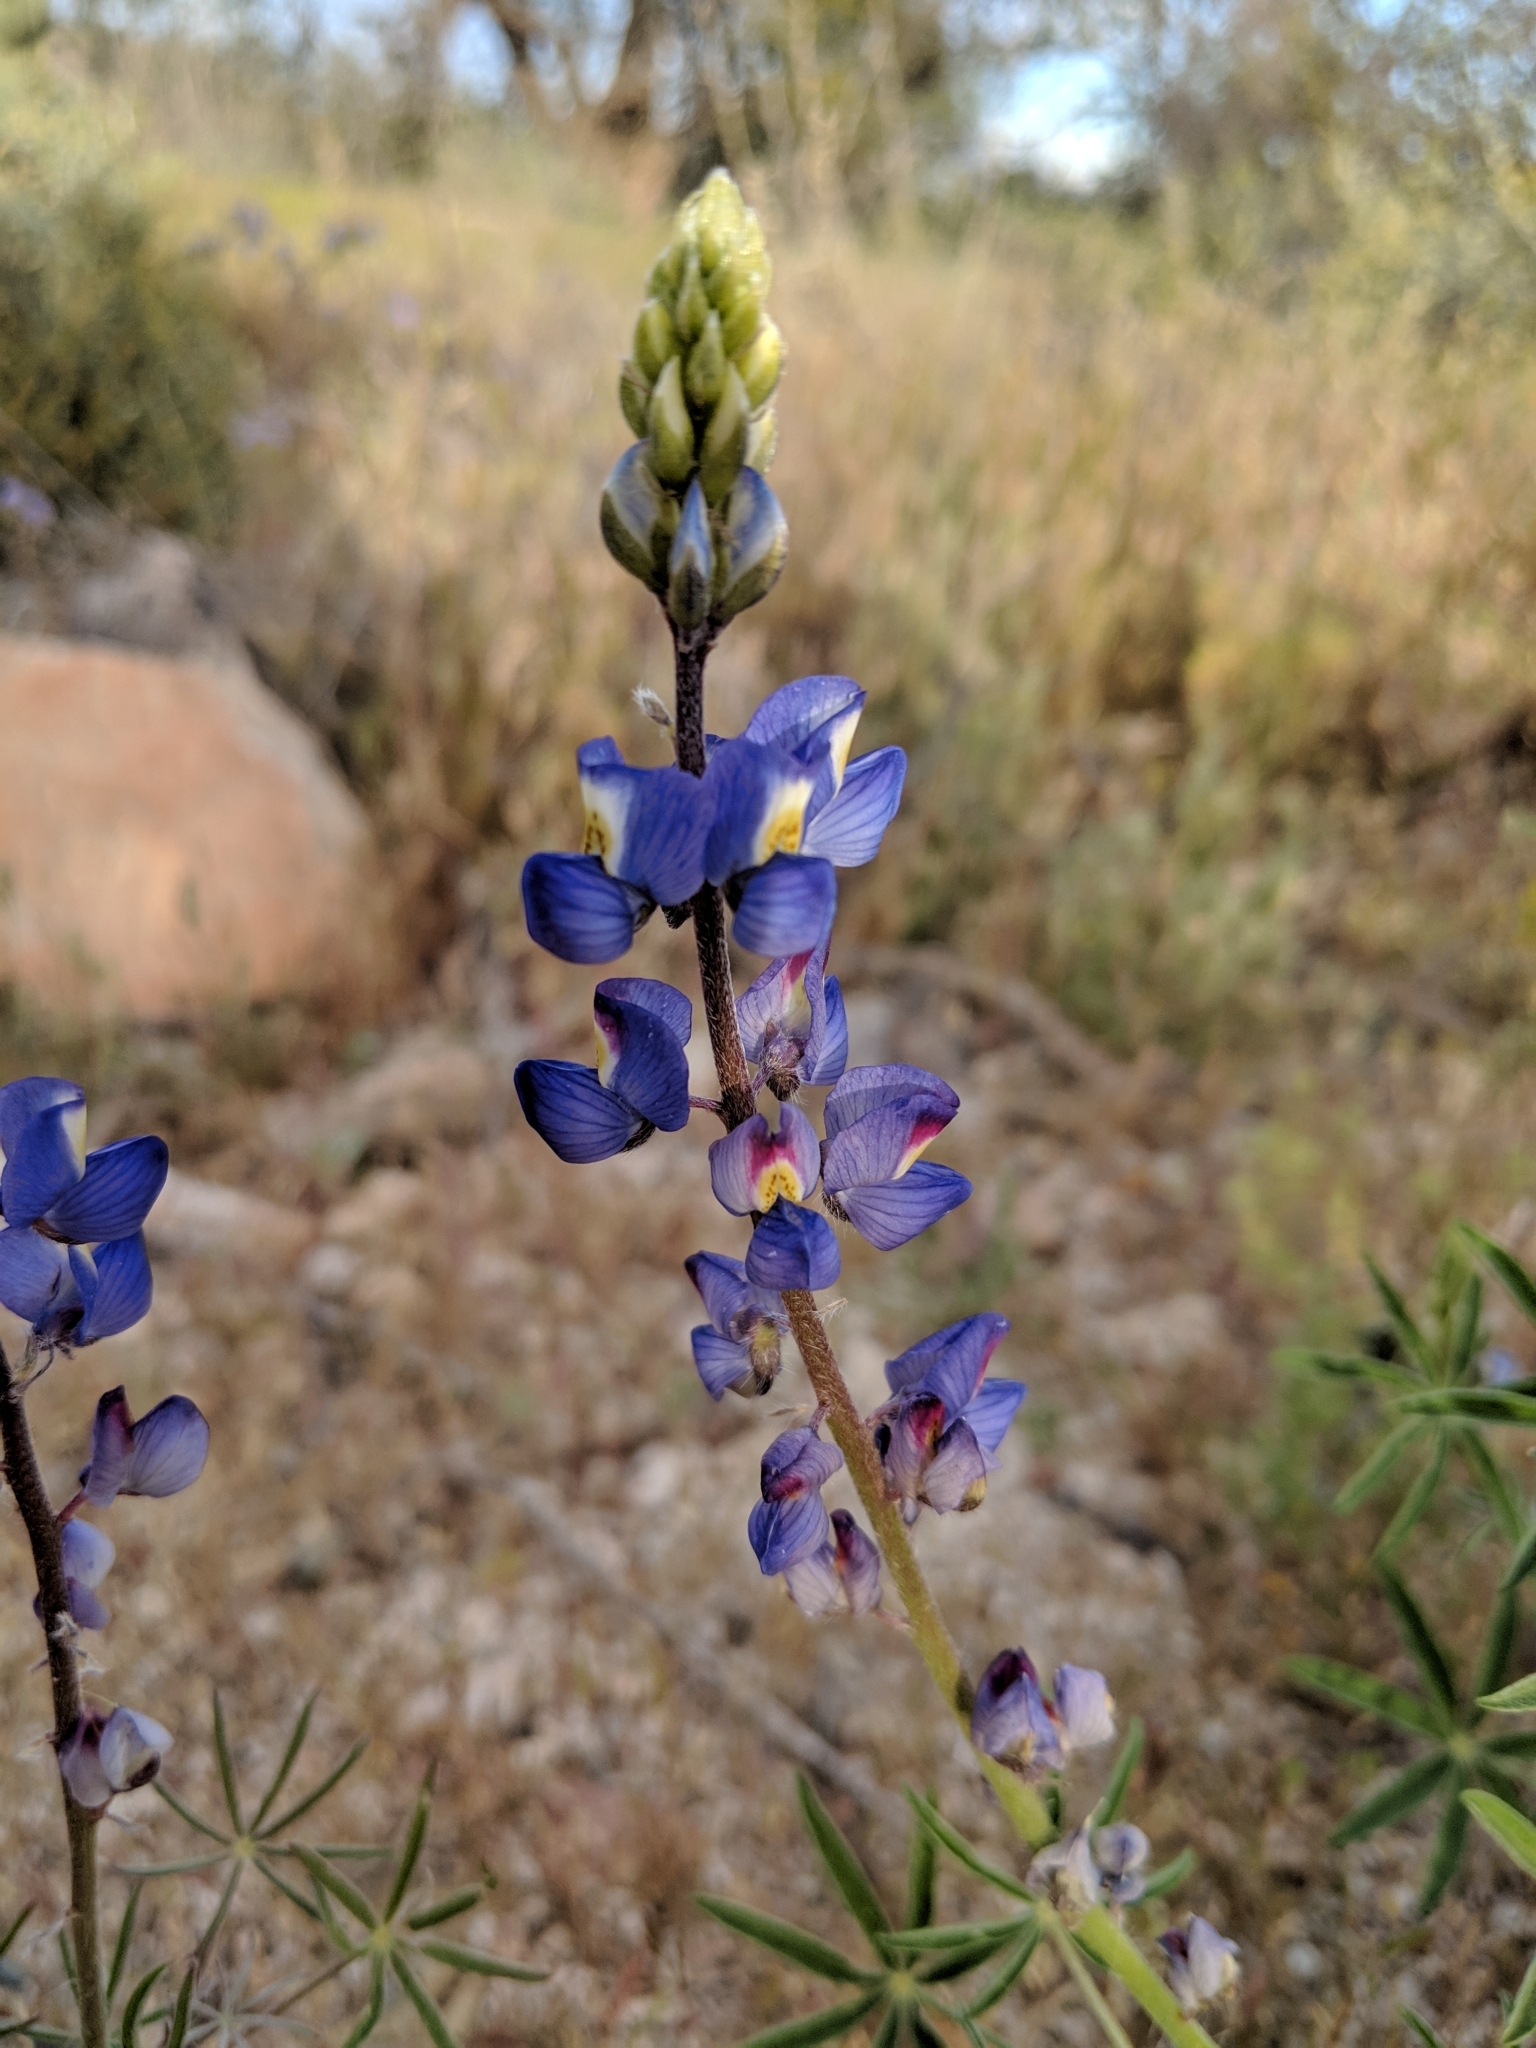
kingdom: Plantae
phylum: Tracheophyta
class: Magnoliopsida
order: Fabales
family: Fabaceae
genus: Lupinus
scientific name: Lupinus sparsiflorus
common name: Coulter's lupine
